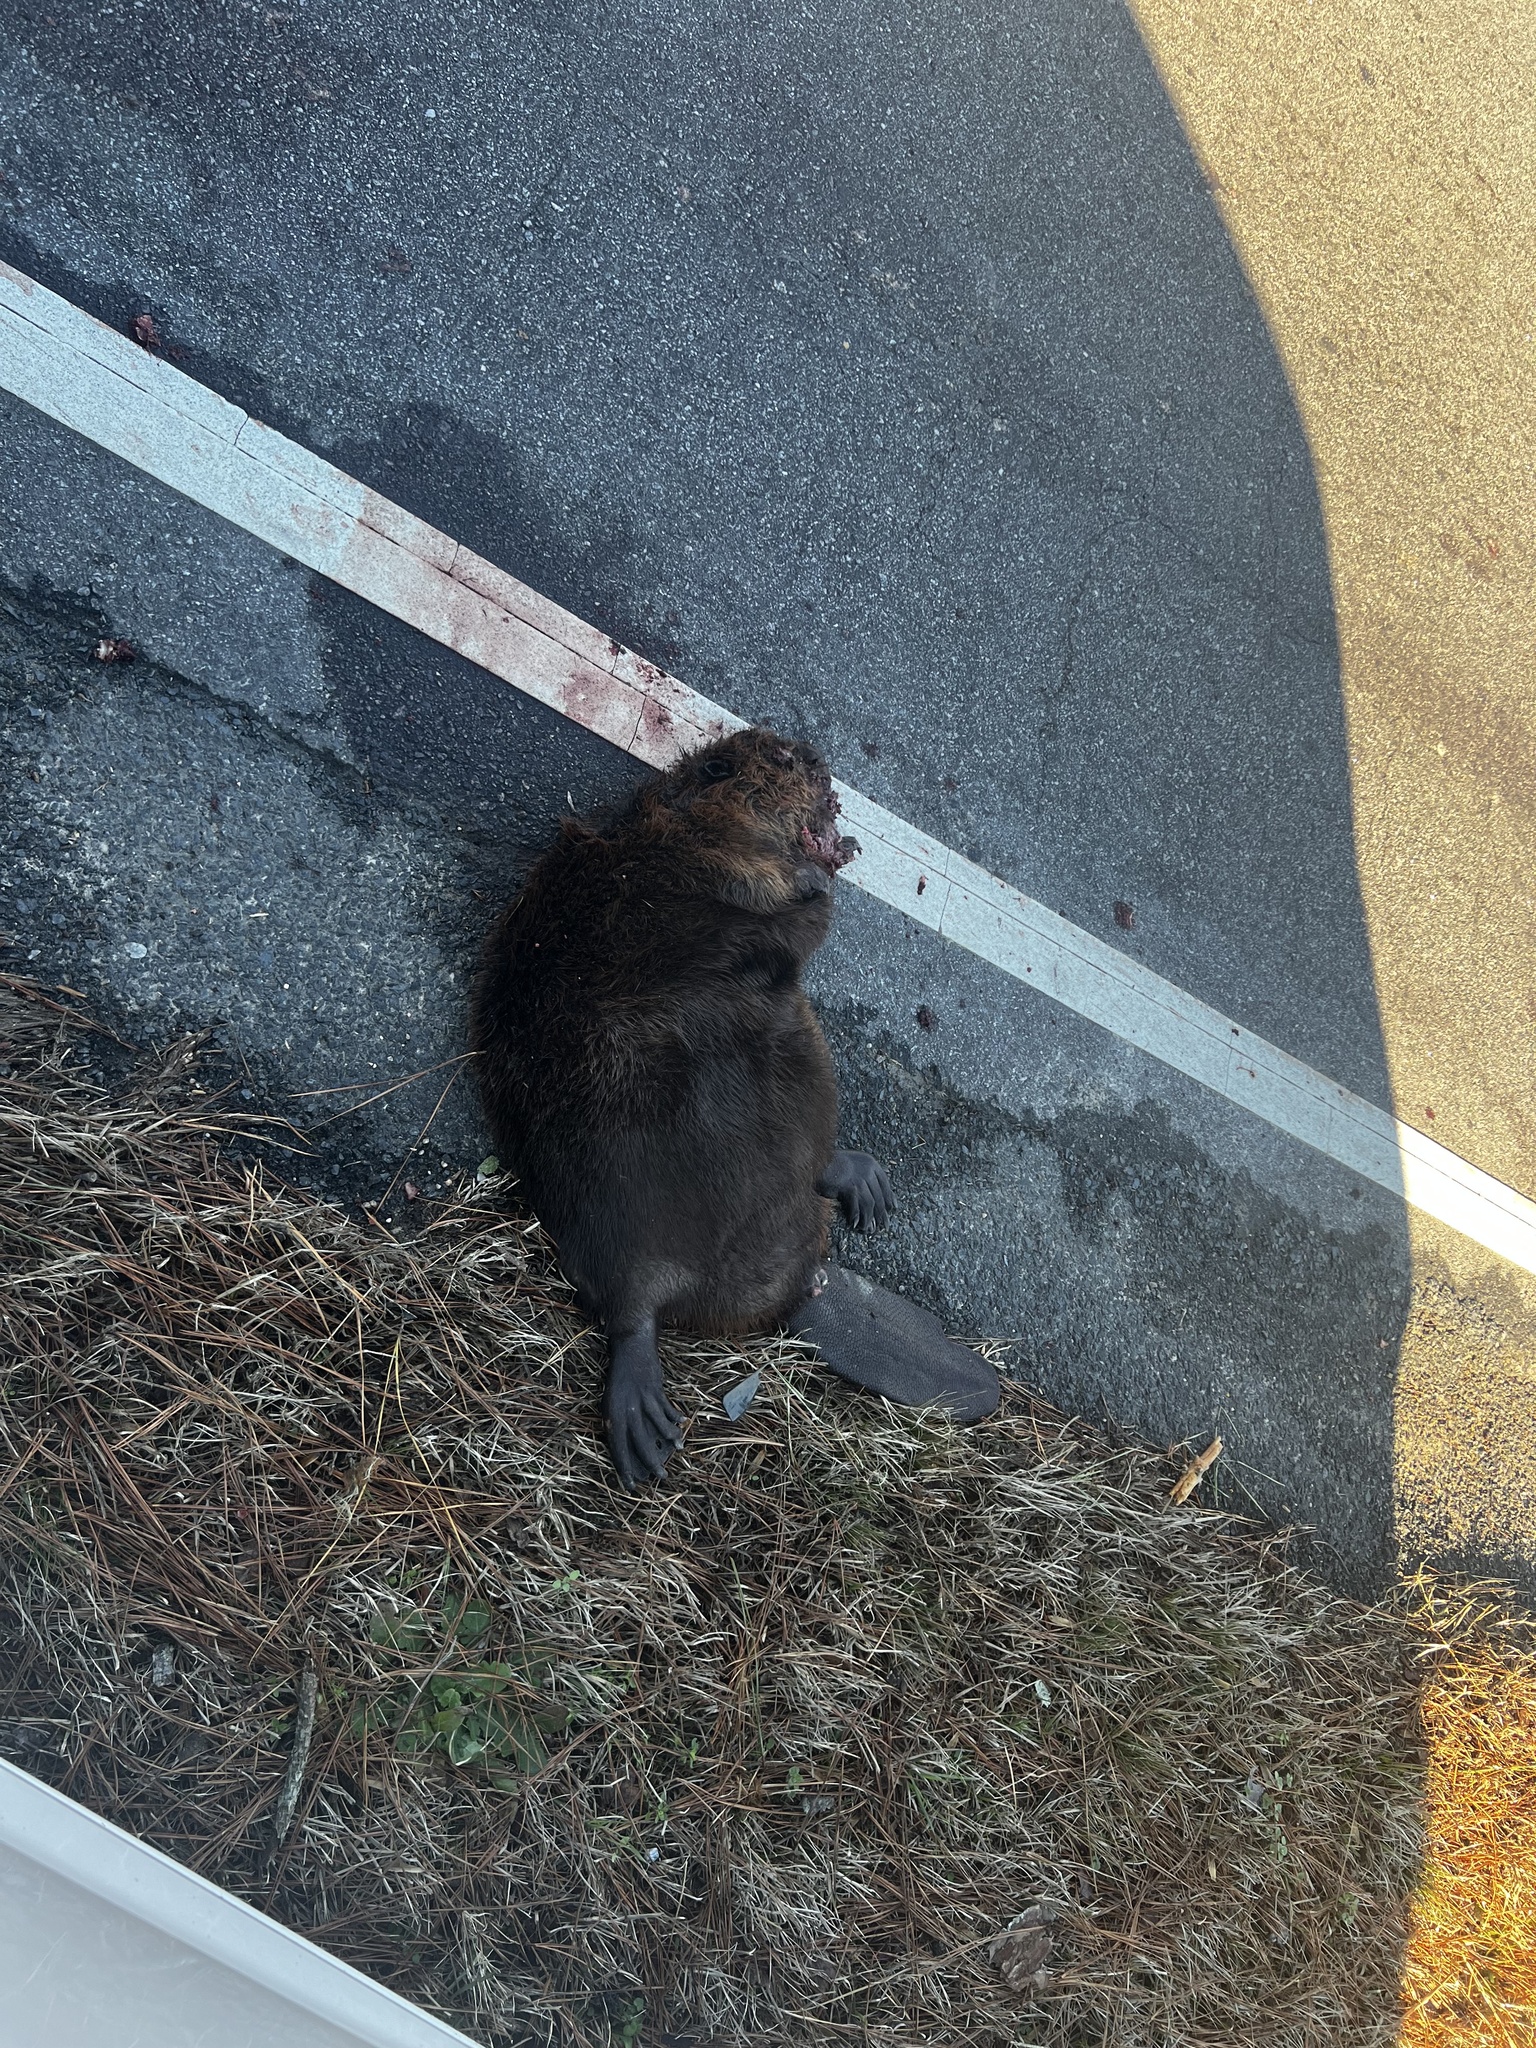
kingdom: Animalia
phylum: Chordata
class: Mammalia
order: Rodentia
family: Castoridae
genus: Castor
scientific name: Castor canadensis
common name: American beaver
